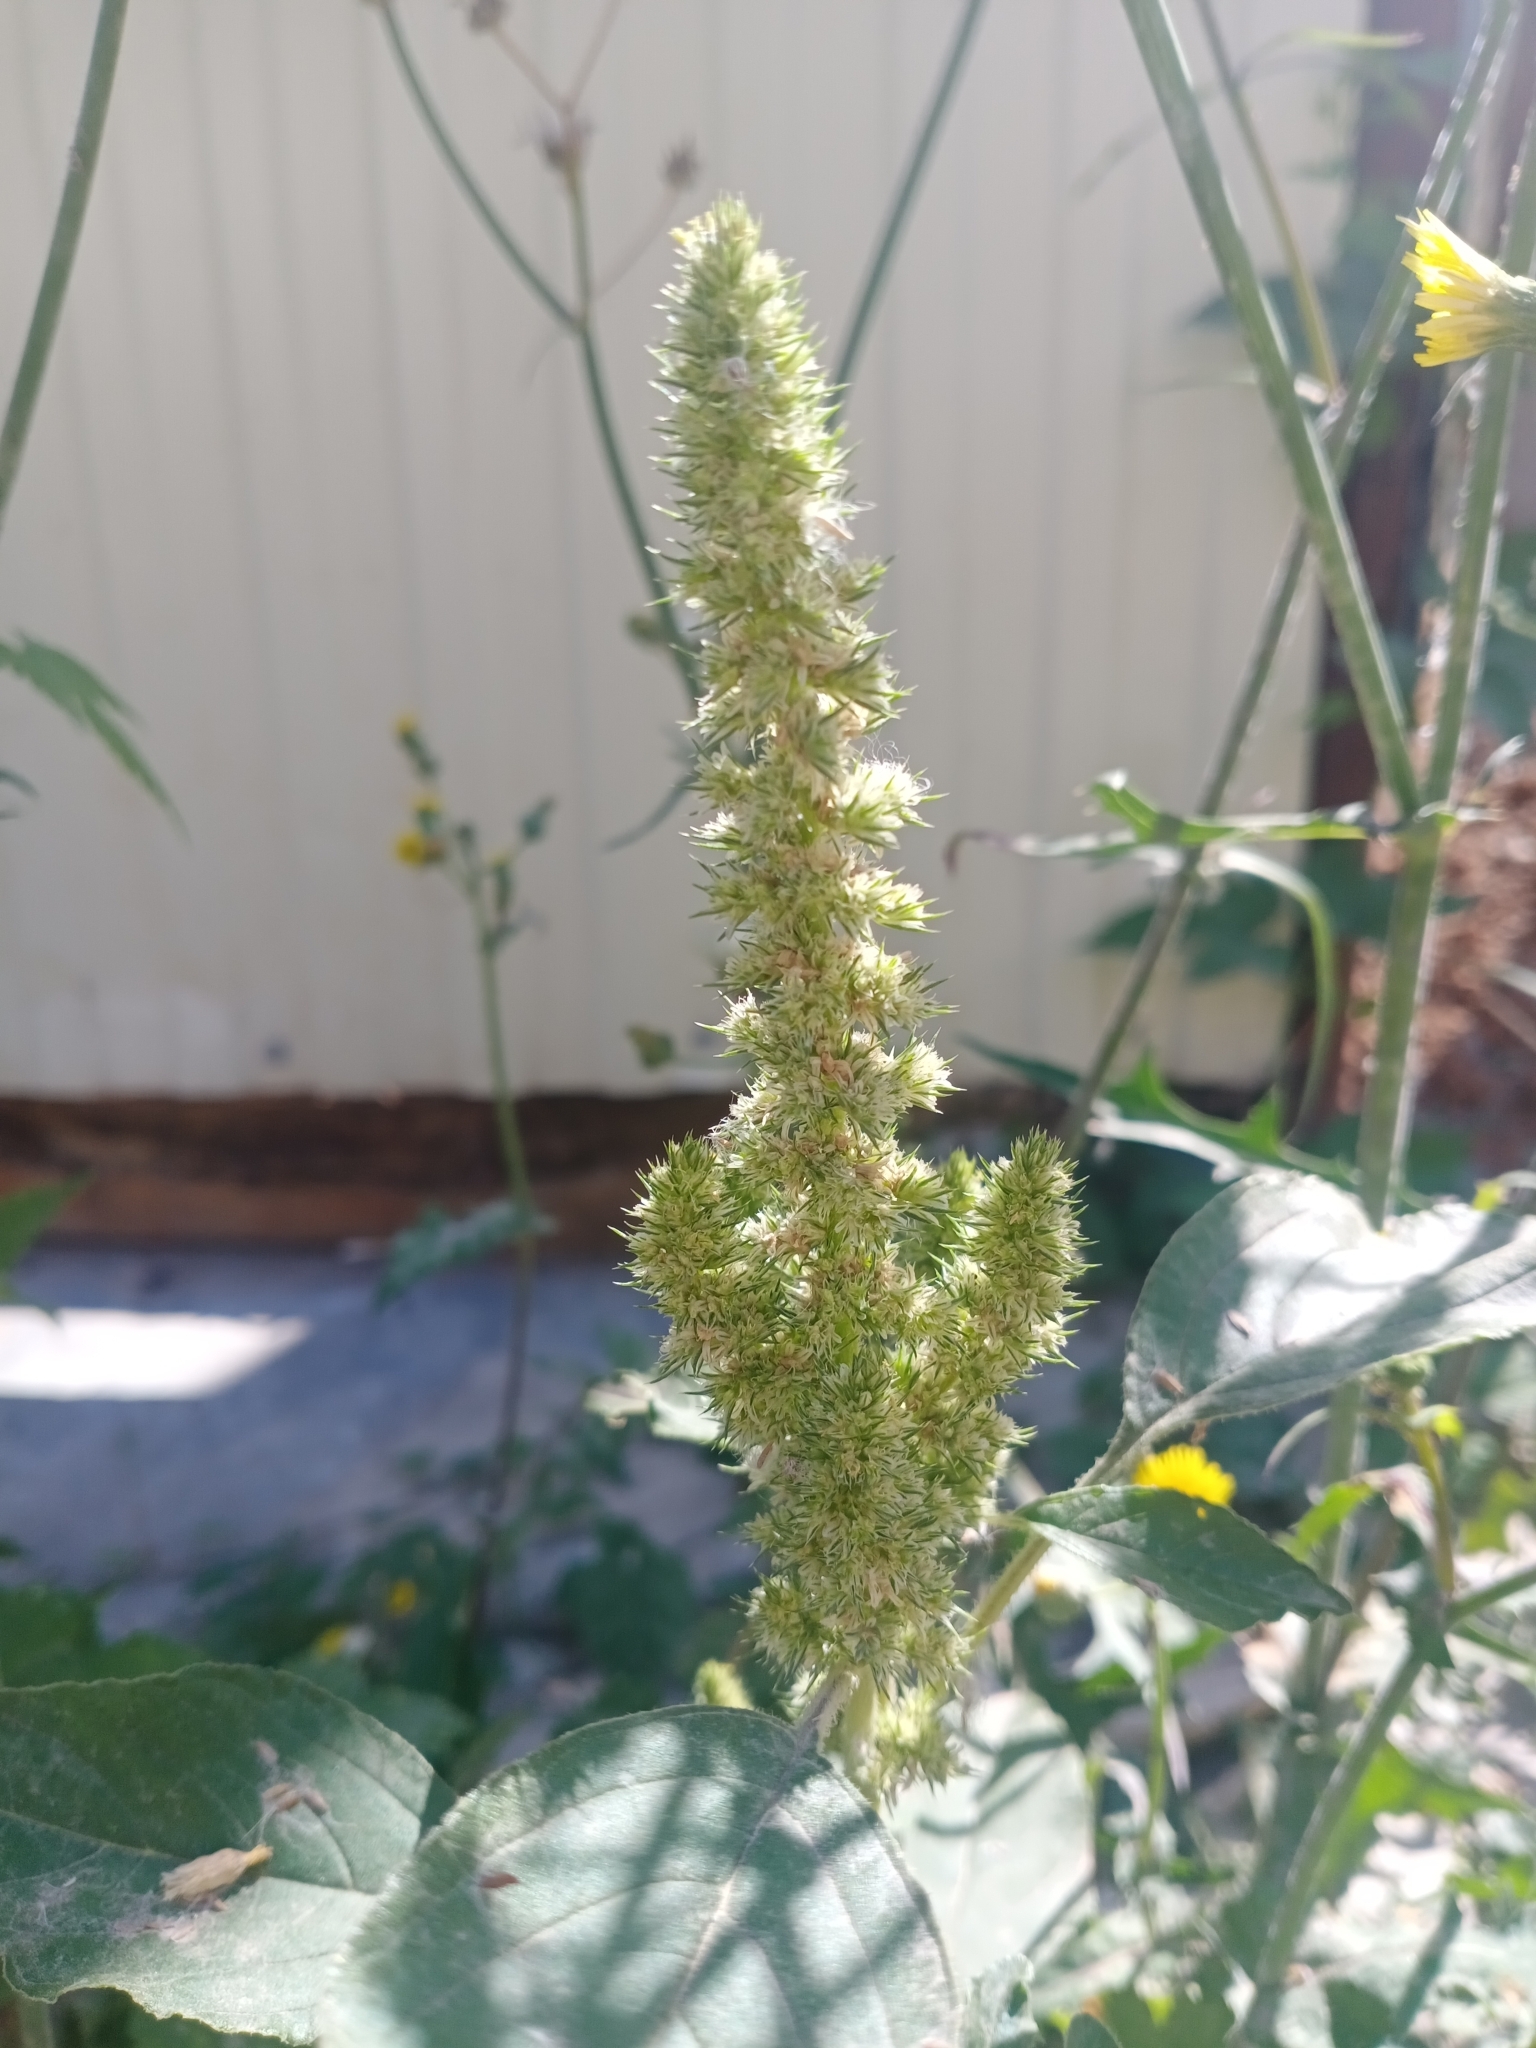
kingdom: Plantae
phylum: Tracheophyta
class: Magnoliopsida
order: Caryophyllales
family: Amaranthaceae
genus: Amaranthus
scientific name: Amaranthus retroflexus
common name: Redroot amaranth
